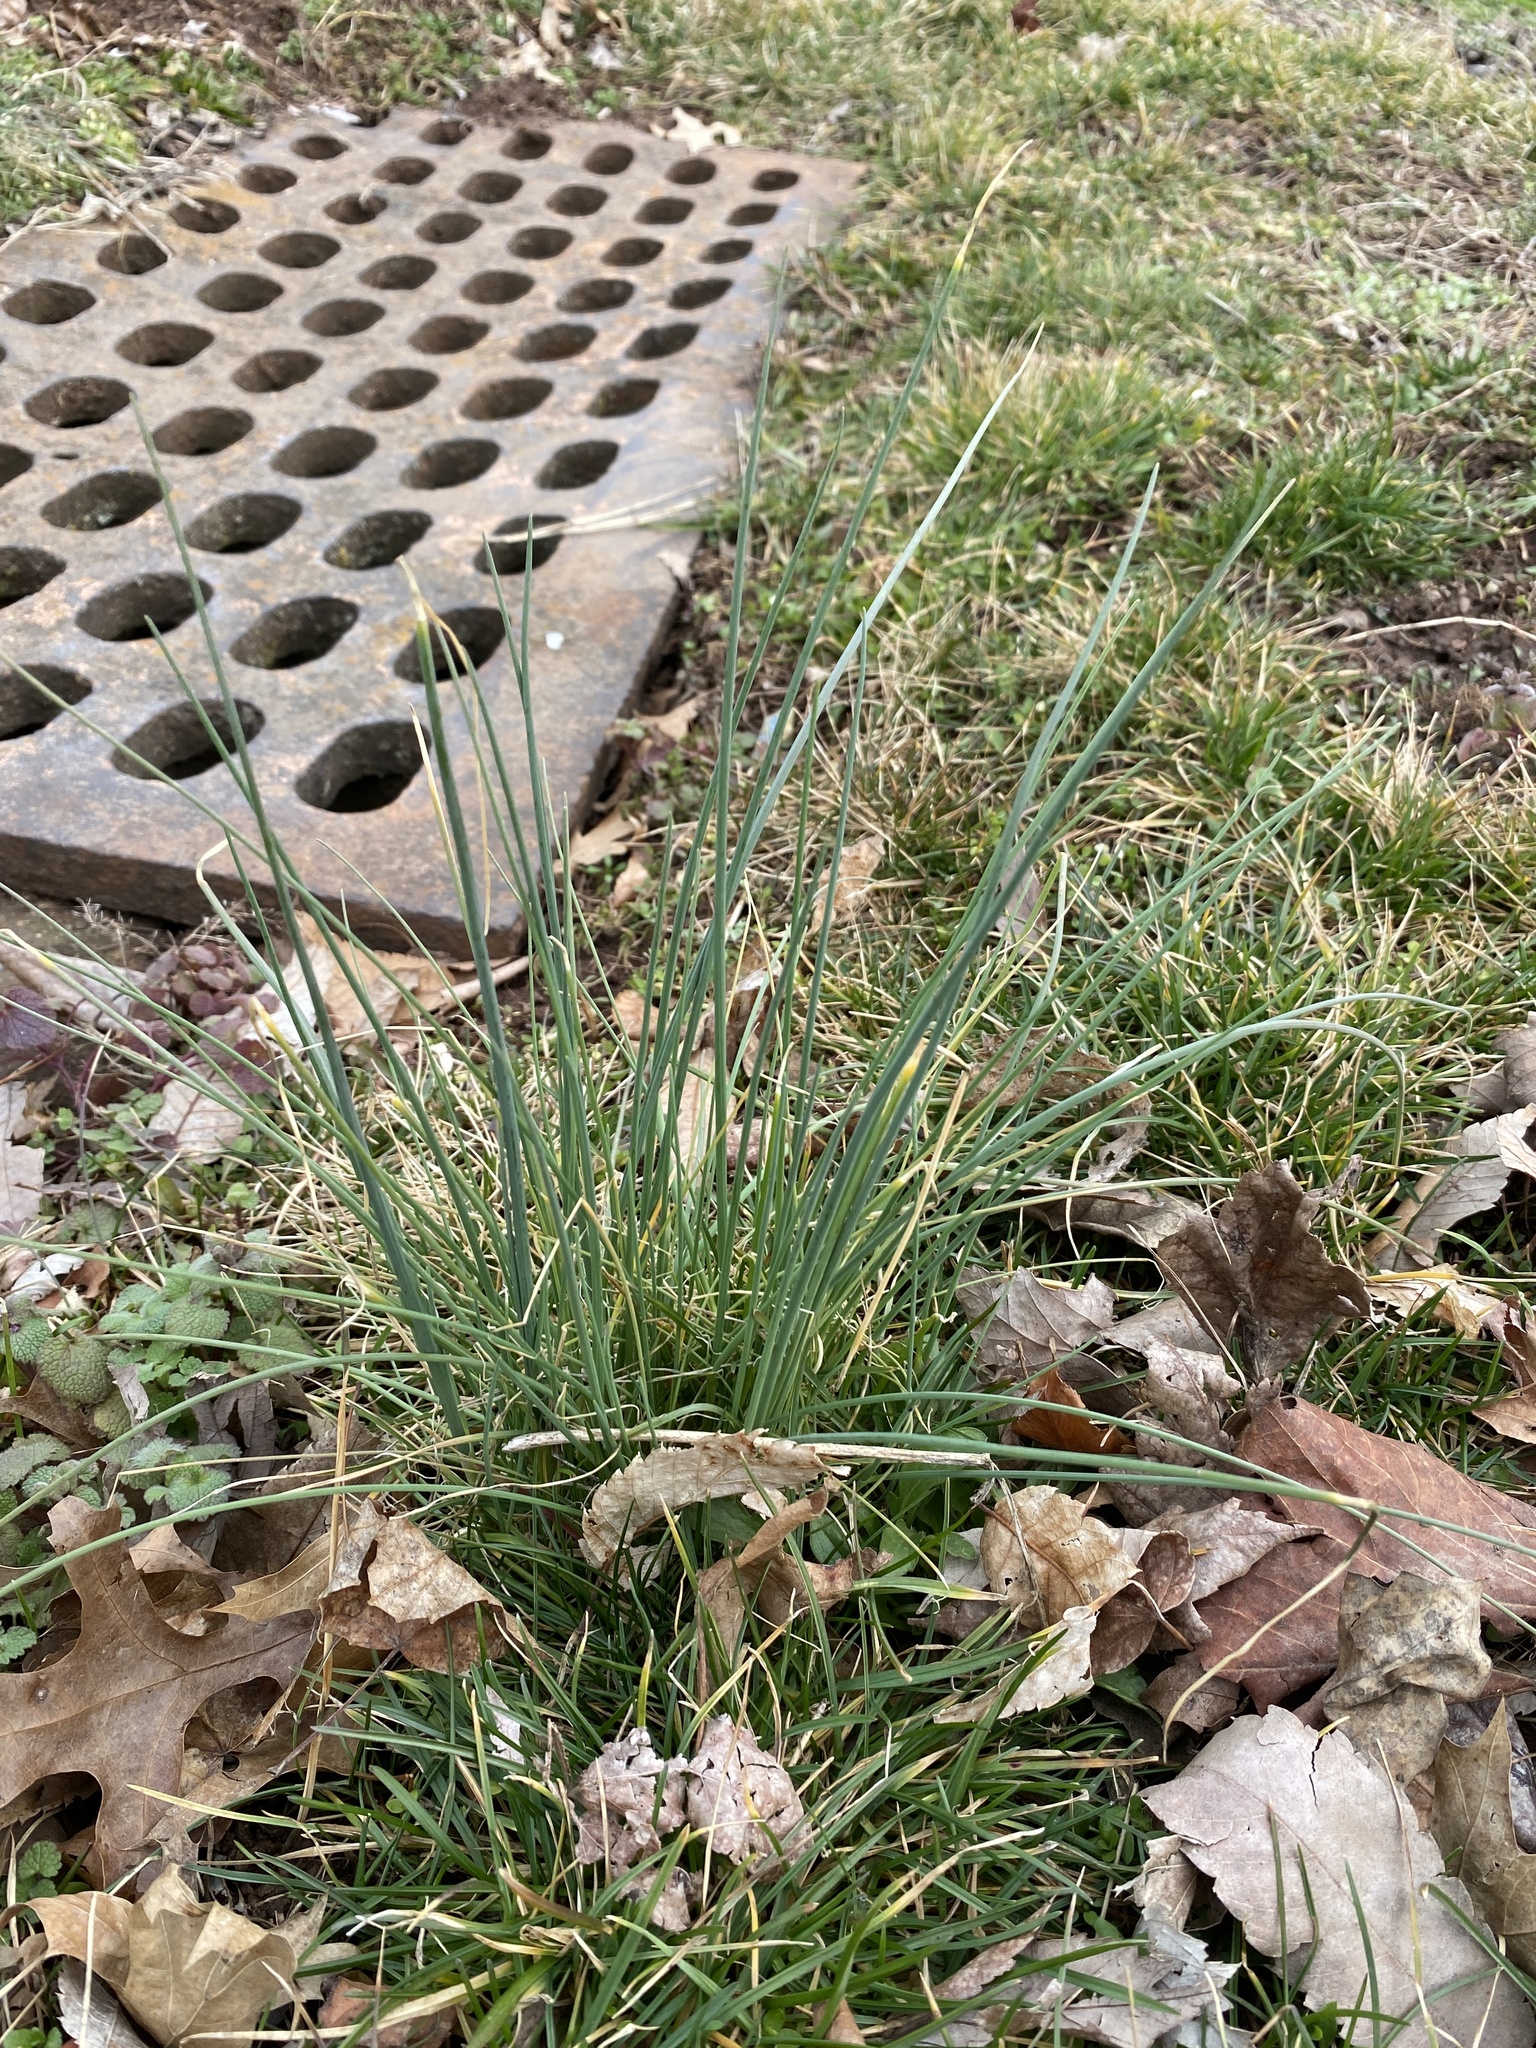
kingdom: Plantae
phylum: Tracheophyta
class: Liliopsida
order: Asparagales
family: Amaryllidaceae
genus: Allium
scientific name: Allium vineale
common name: Crow garlic
